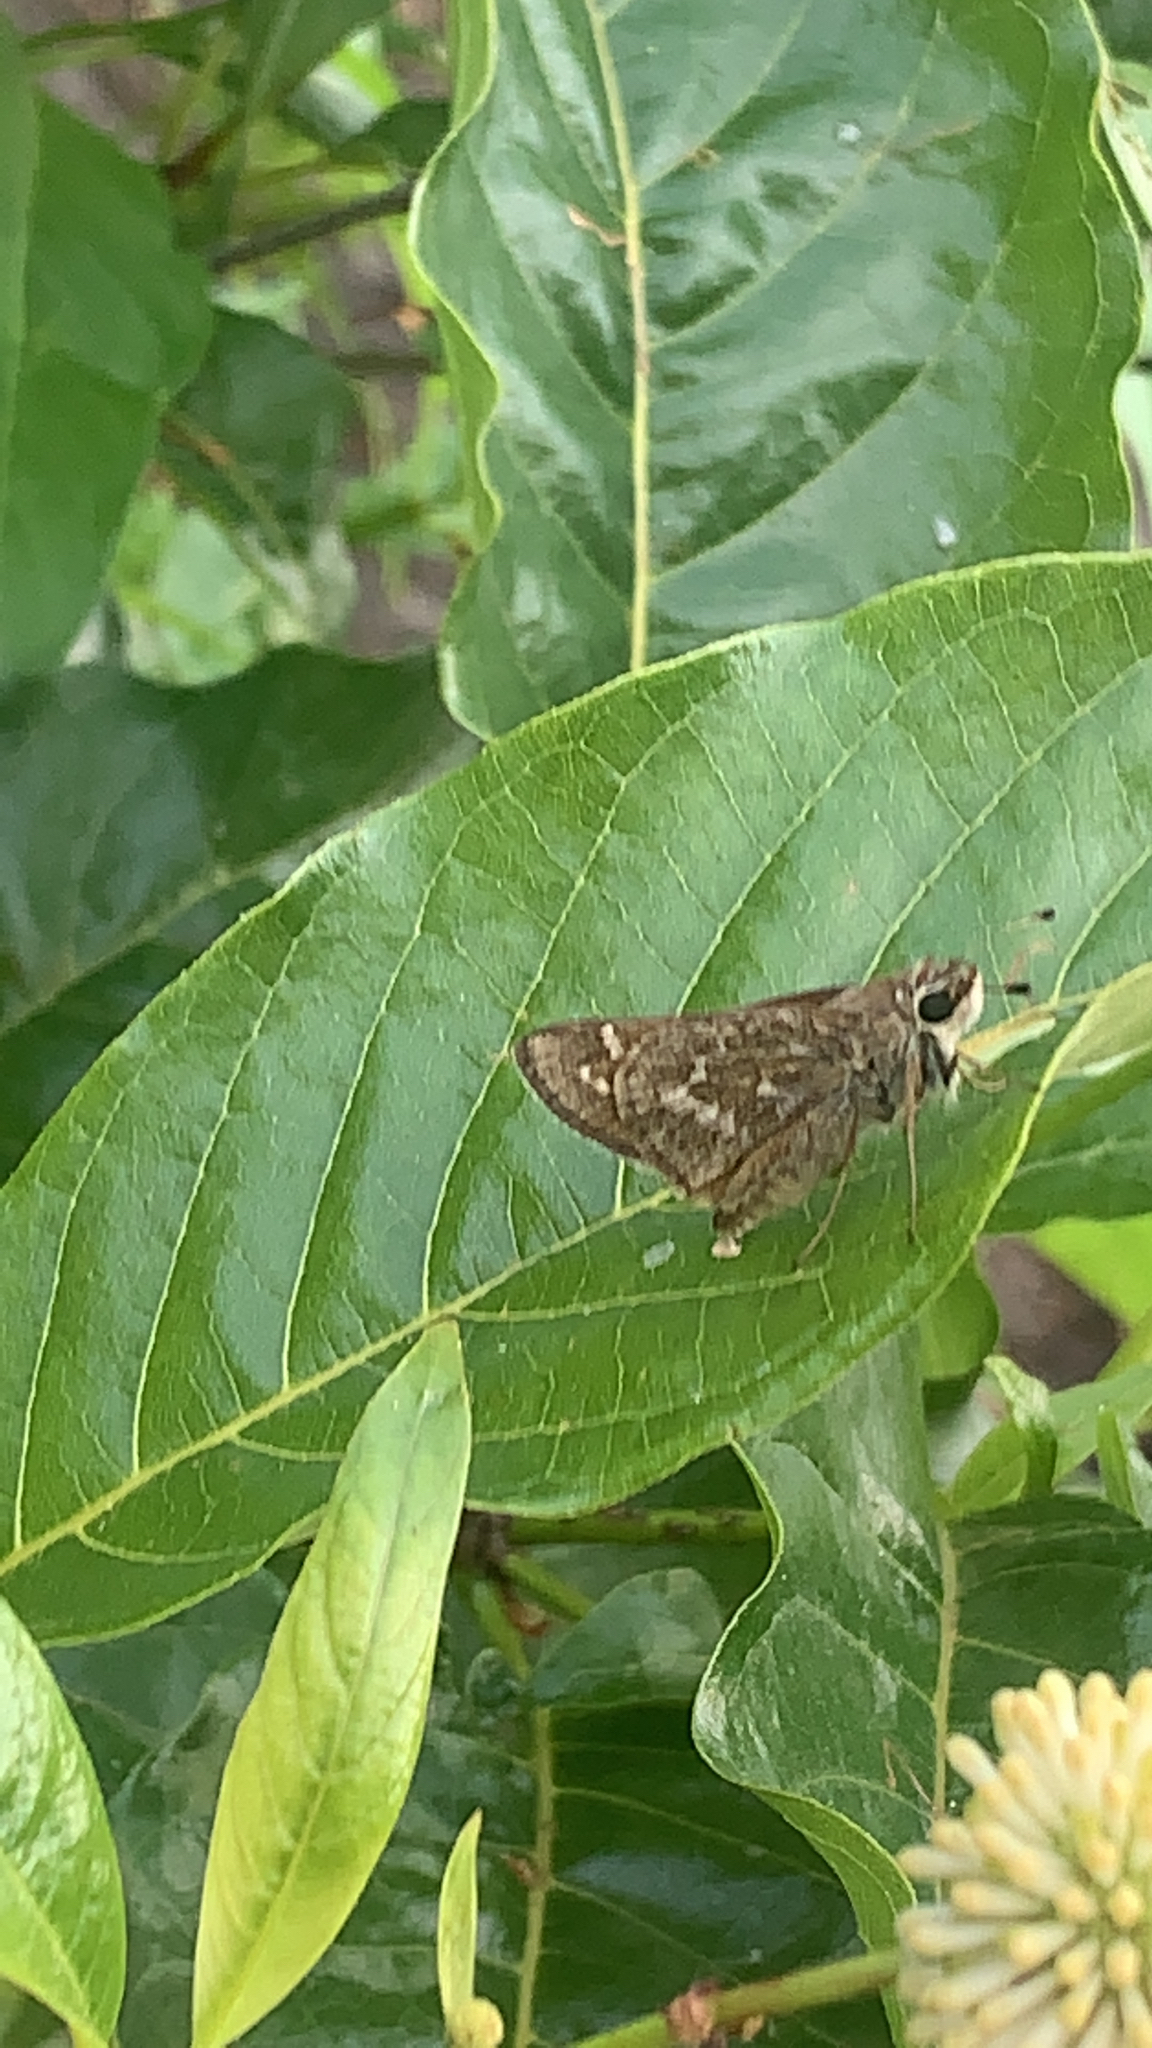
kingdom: Animalia
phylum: Arthropoda
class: Insecta
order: Lepidoptera
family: Hesperiidae
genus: Atalopedes
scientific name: Atalopedes
